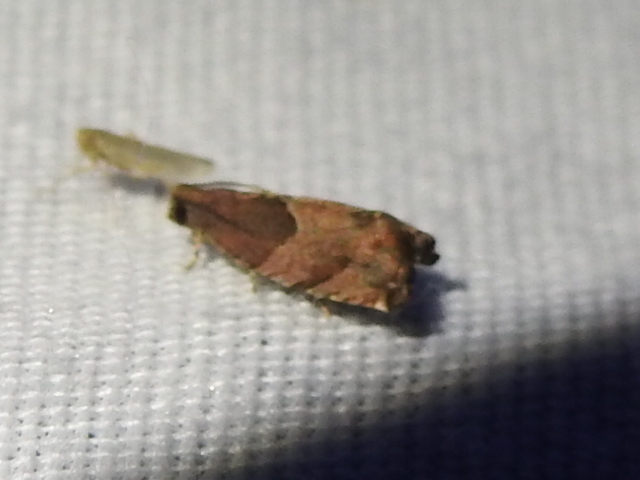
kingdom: Animalia
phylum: Arthropoda
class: Insecta
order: Lepidoptera
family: Tortricidae
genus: Gypsonoma
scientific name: Gypsonoma salicicolana
